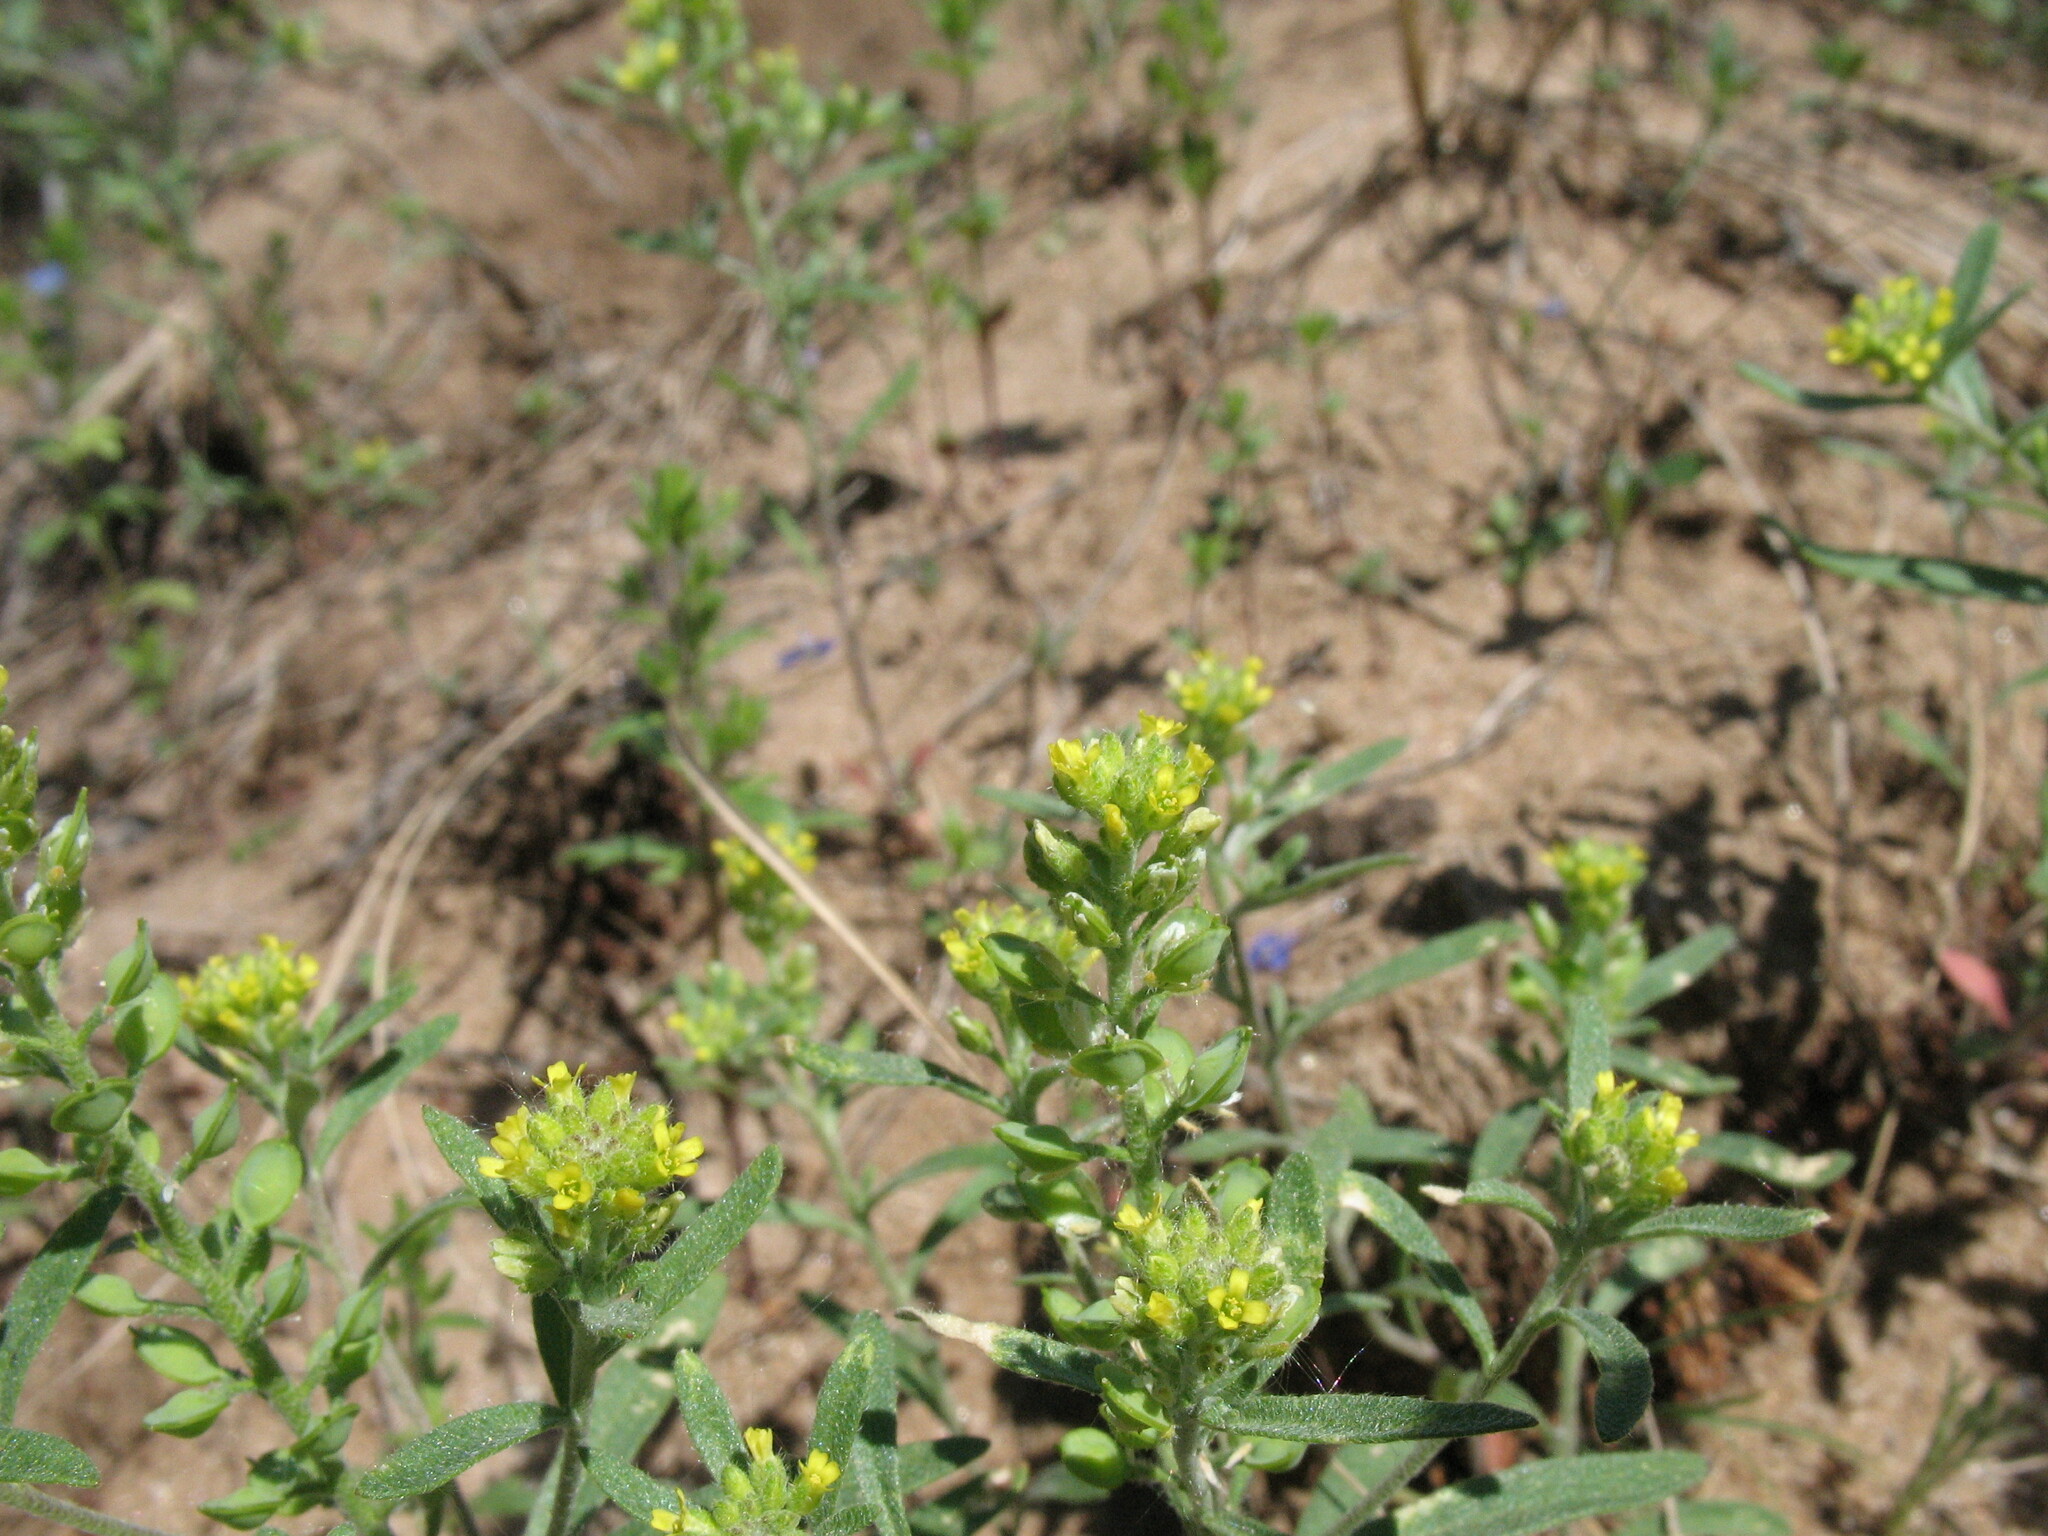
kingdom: Plantae
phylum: Tracheophyta
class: Magnoliopsida
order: Brassicales
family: Brassicaceae
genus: Alyssum
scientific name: Alyssum turkestanicum
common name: Desert alyssum
